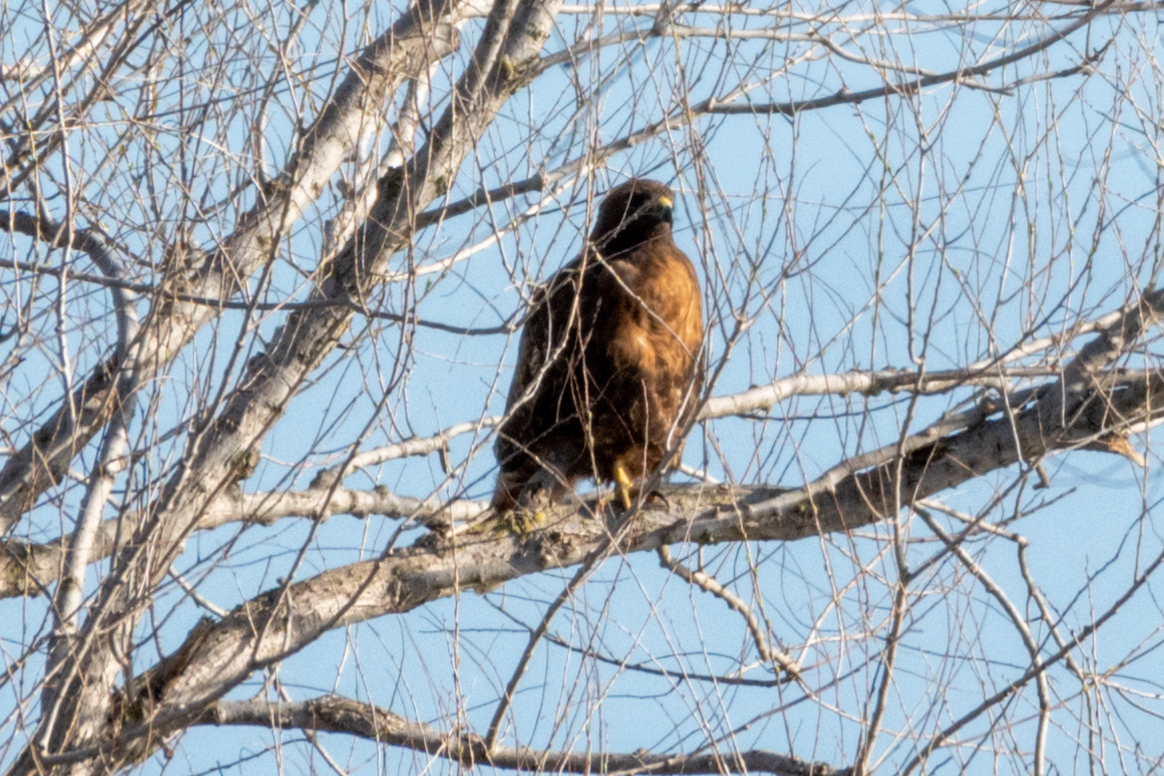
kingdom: Animalia
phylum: Chordata
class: Aves
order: Accipitriformes
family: Accipitridae
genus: Buteo
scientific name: Buteo jamaicensis
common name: Red-tailed hawk
